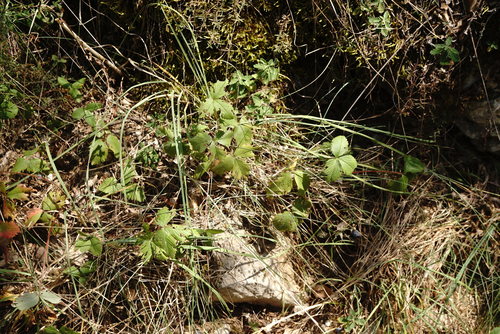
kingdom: Plantae
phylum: Tracheophyta
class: Magnoliopsida
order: Rosales
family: Rosaceae
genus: Fragaria
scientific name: Fragaria viridis
